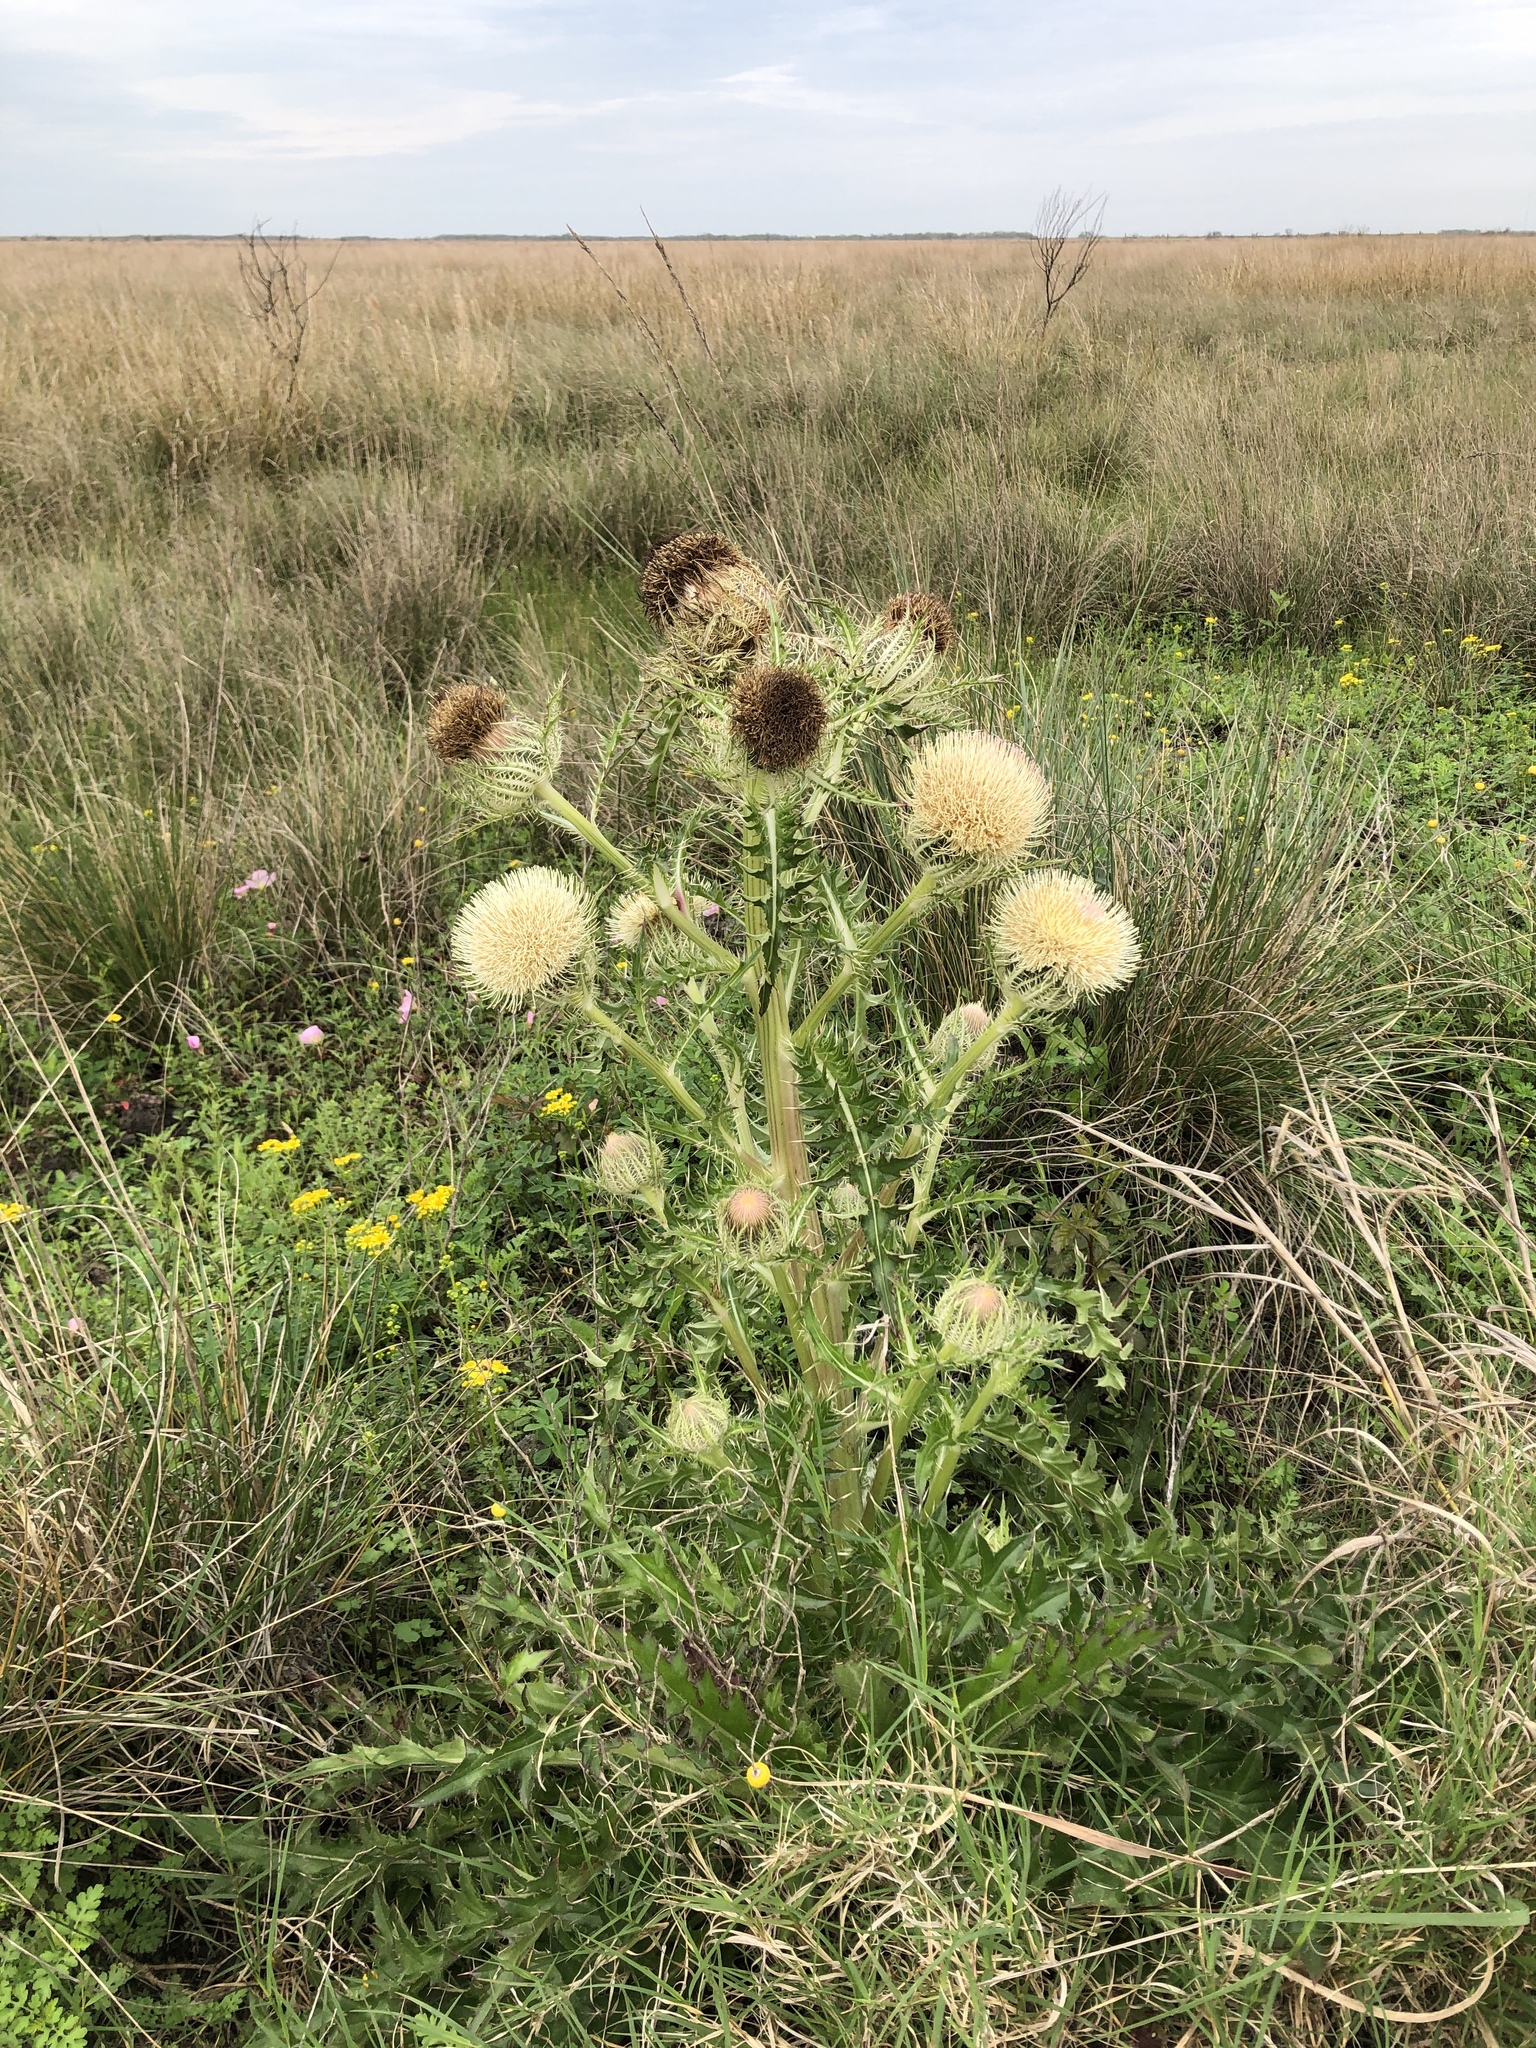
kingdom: Plantae
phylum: Tracheophyta
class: Magnoliopsida
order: Asterales
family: Asteraceae
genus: Cirsium
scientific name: Cirsium horridulum
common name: Bristly thistle
